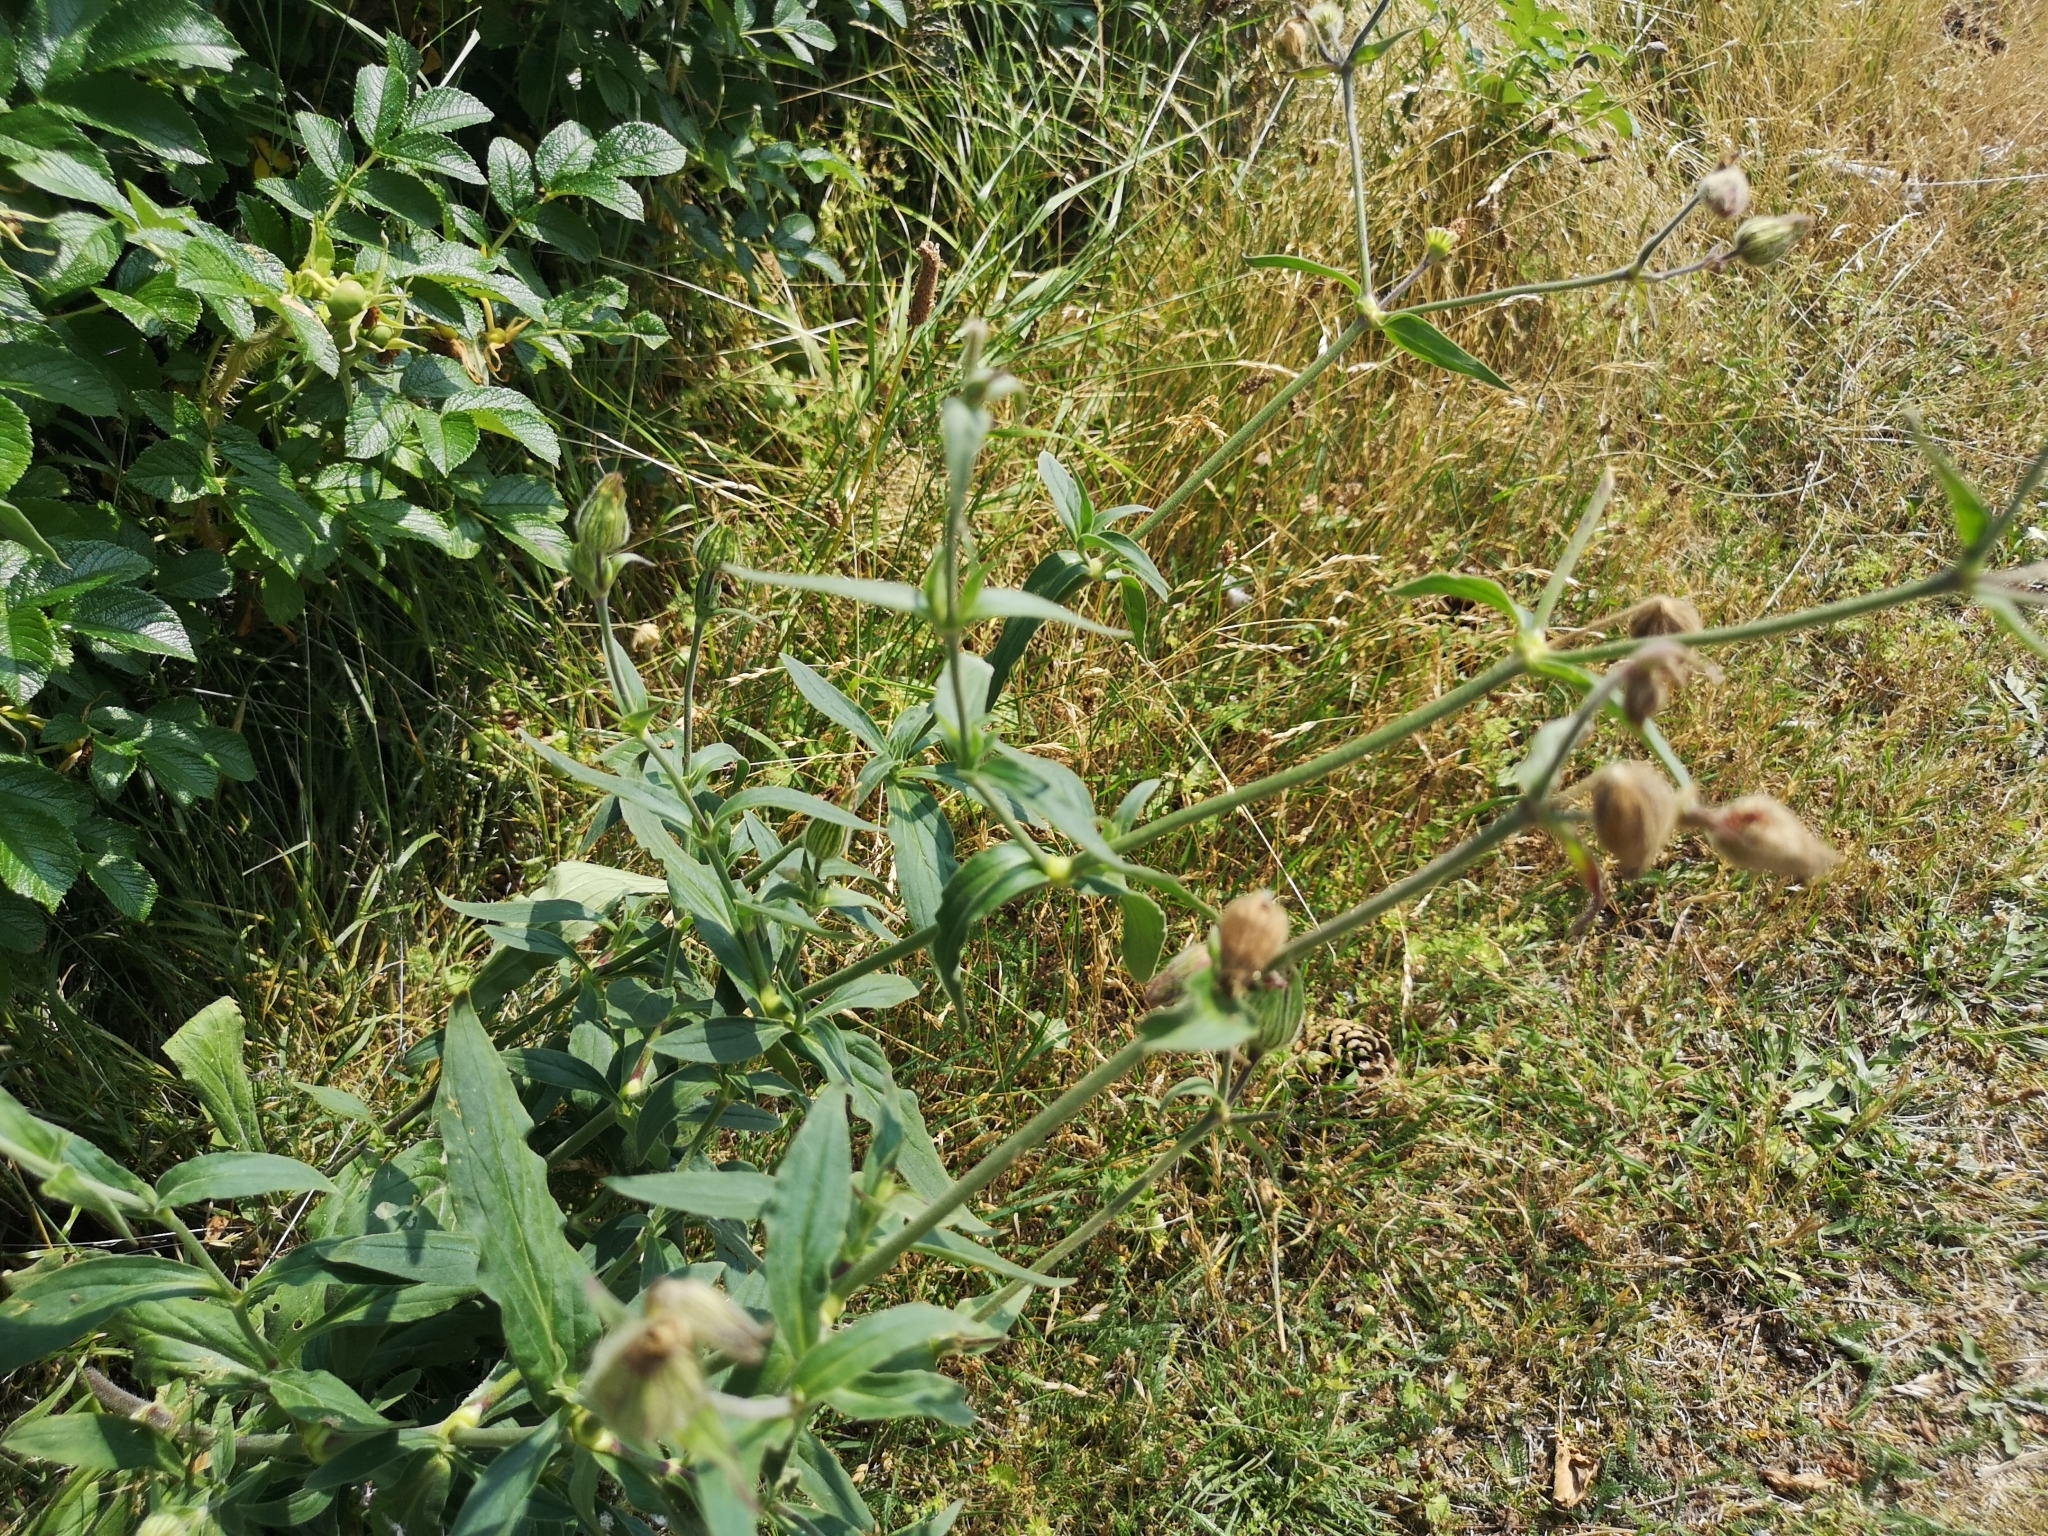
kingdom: Plantae
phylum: Tracheophyta
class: Magnoliopsida
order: Caryophyllales
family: Caryophyllaceae
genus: Silene
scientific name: Silene latifolia
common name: White campion
